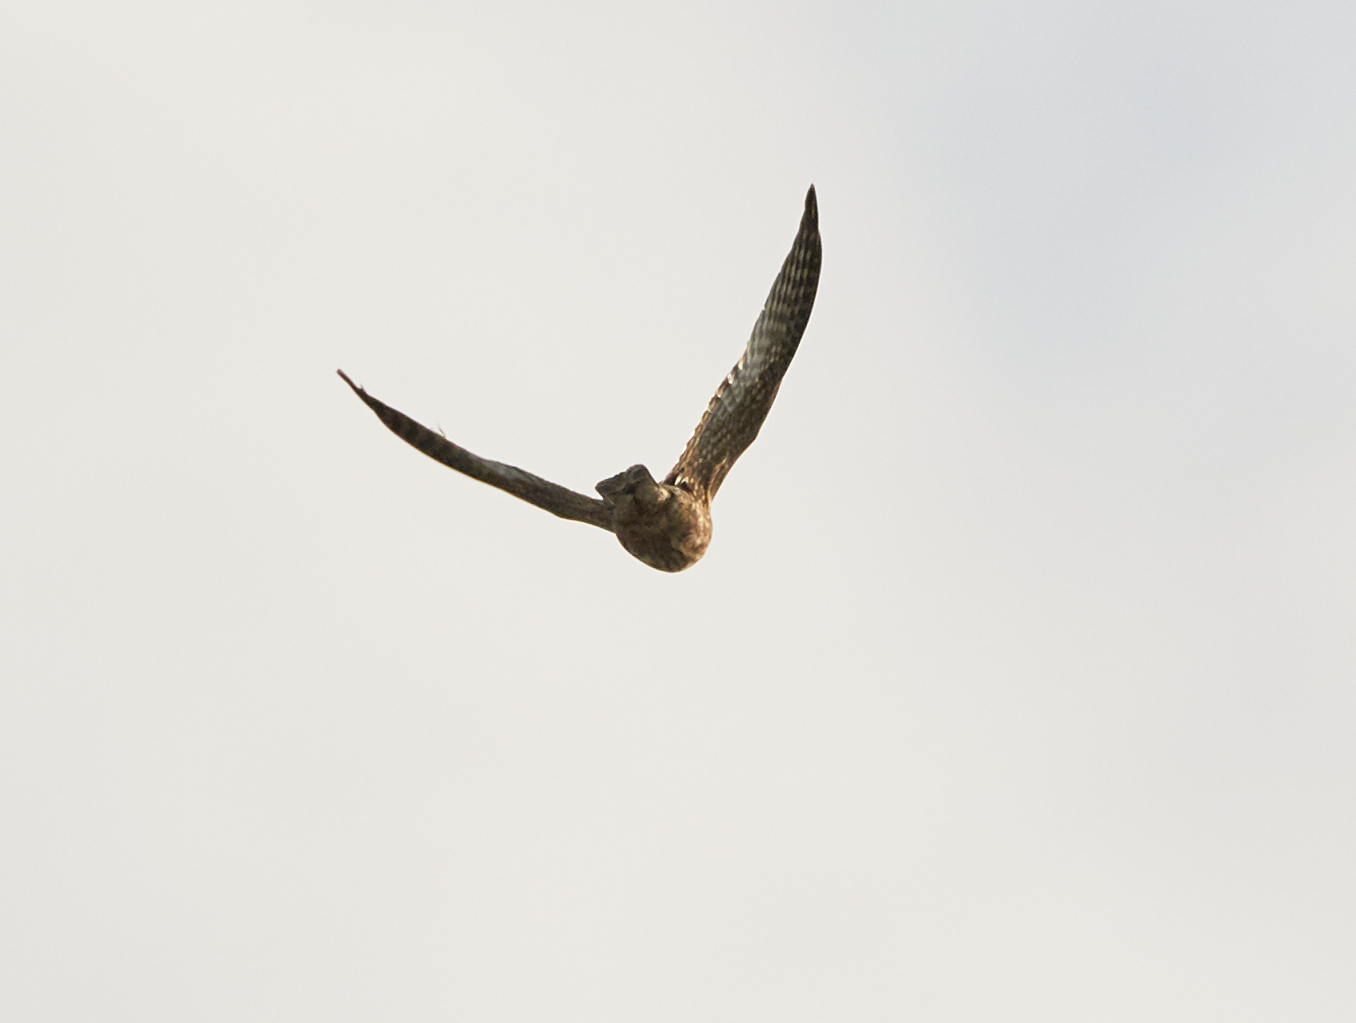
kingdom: Animalia
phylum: Chordata
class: Aves
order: Accipitriformes
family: Accipitridae
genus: Accipiter
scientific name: Accipiter striatus
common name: Sharp-shinned hawk
